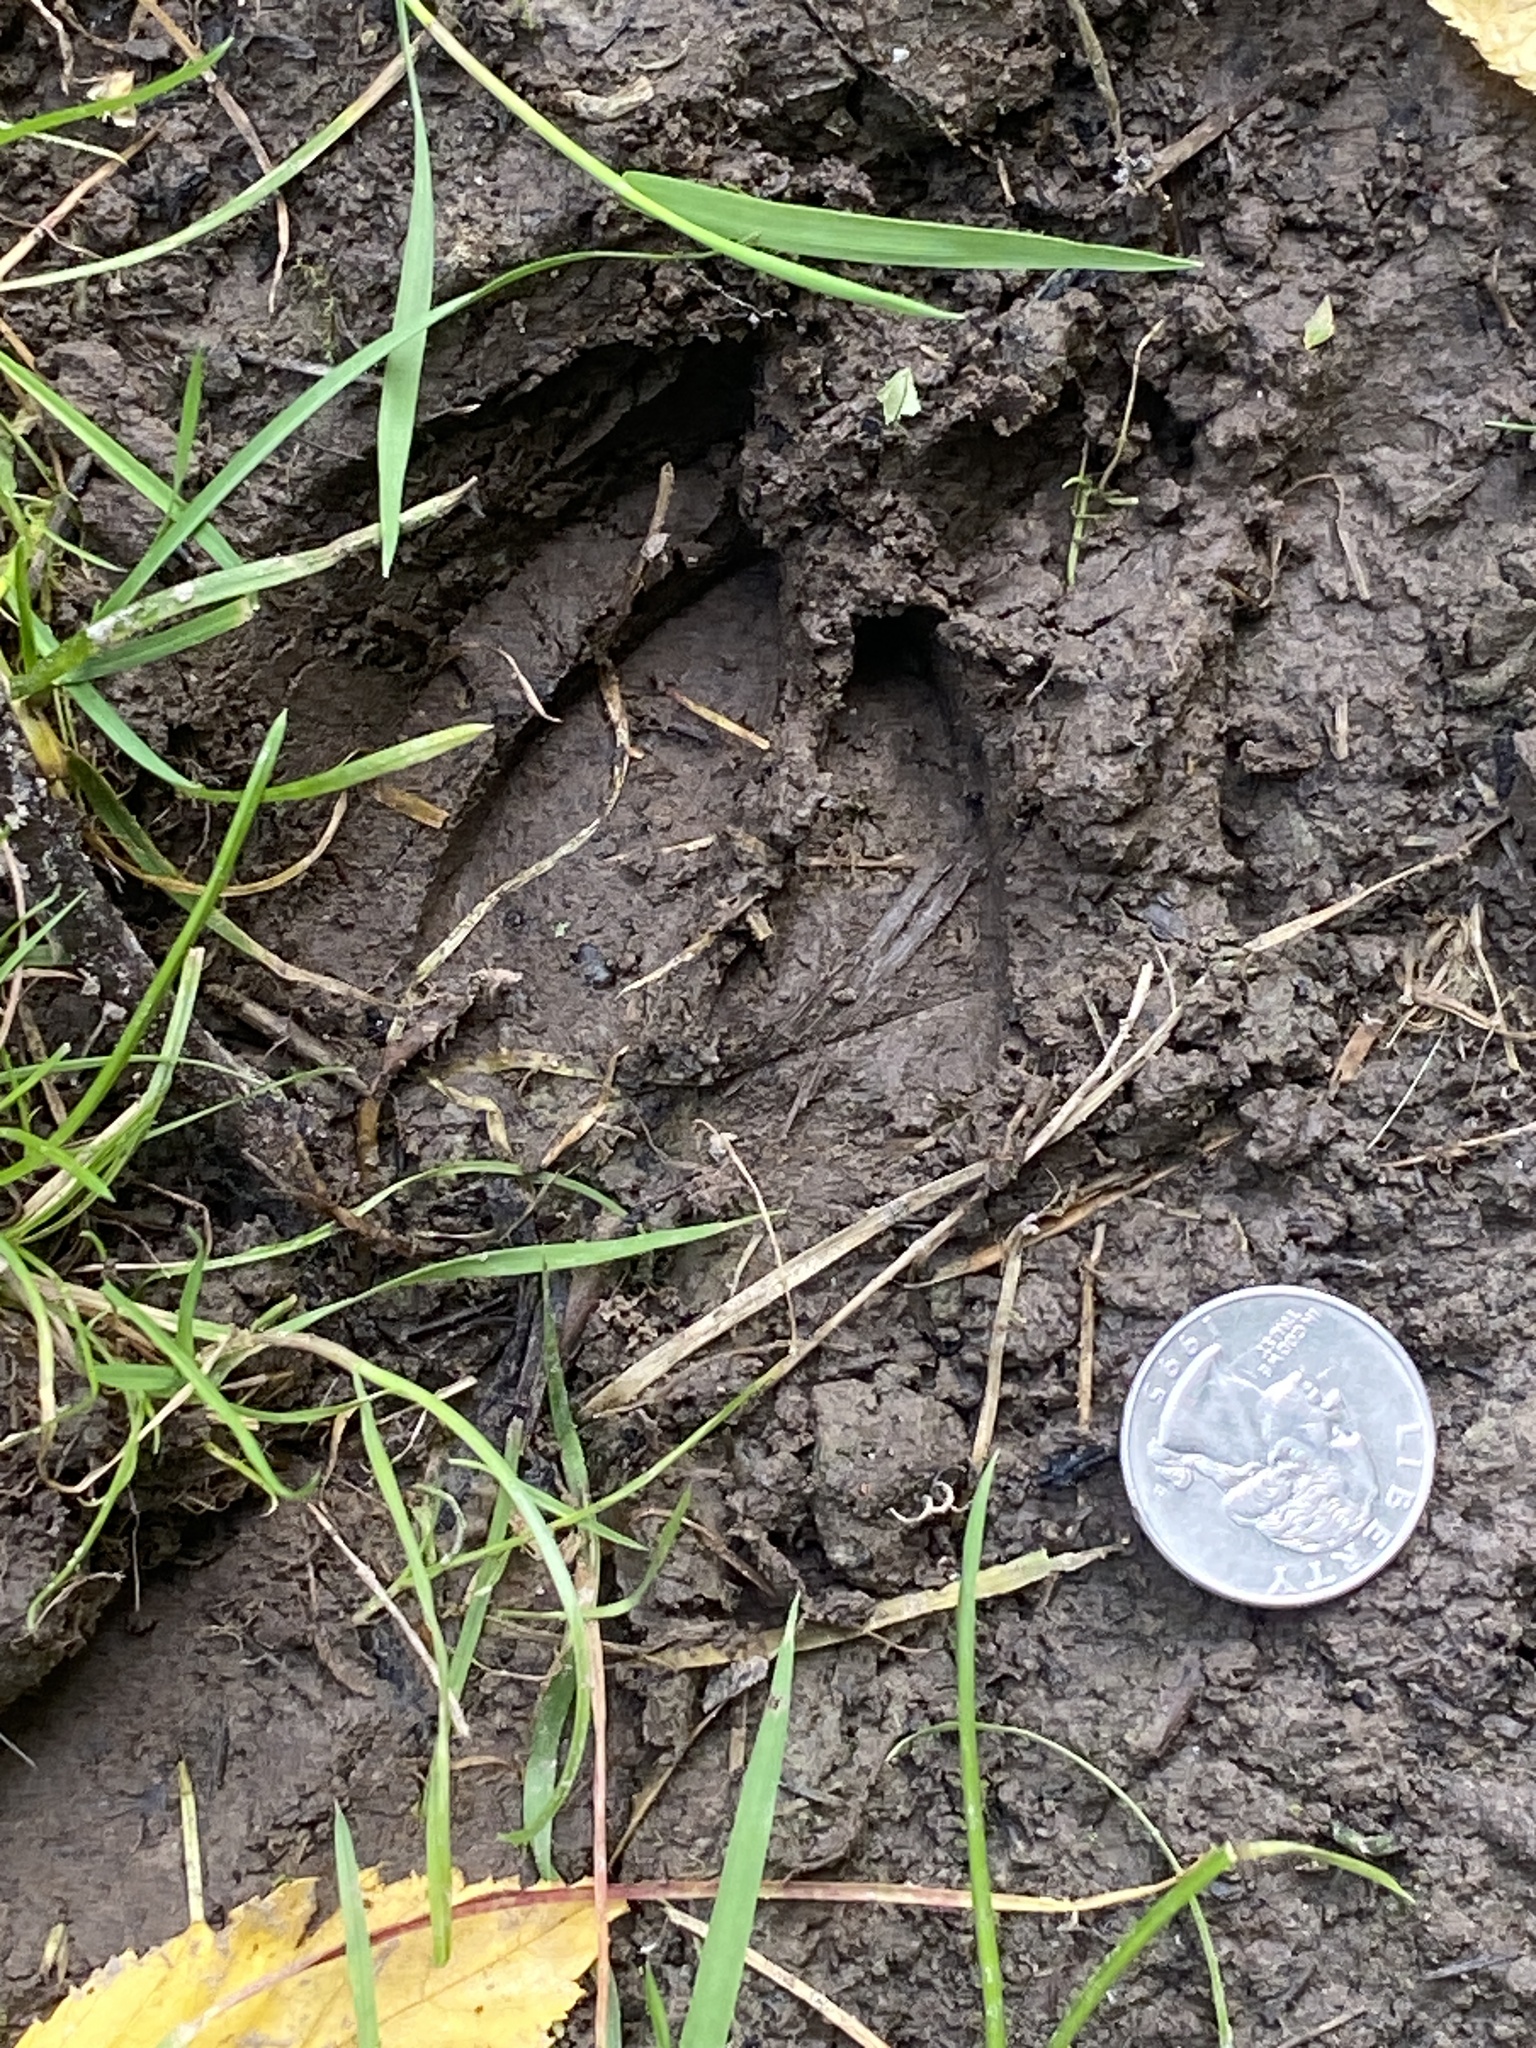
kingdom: Animalia
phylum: Chordata
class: Mammalia
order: Artiodactyla
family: Cervidae
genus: Odocoileus
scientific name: Odocoileus virginianus
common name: White-tailed deer
